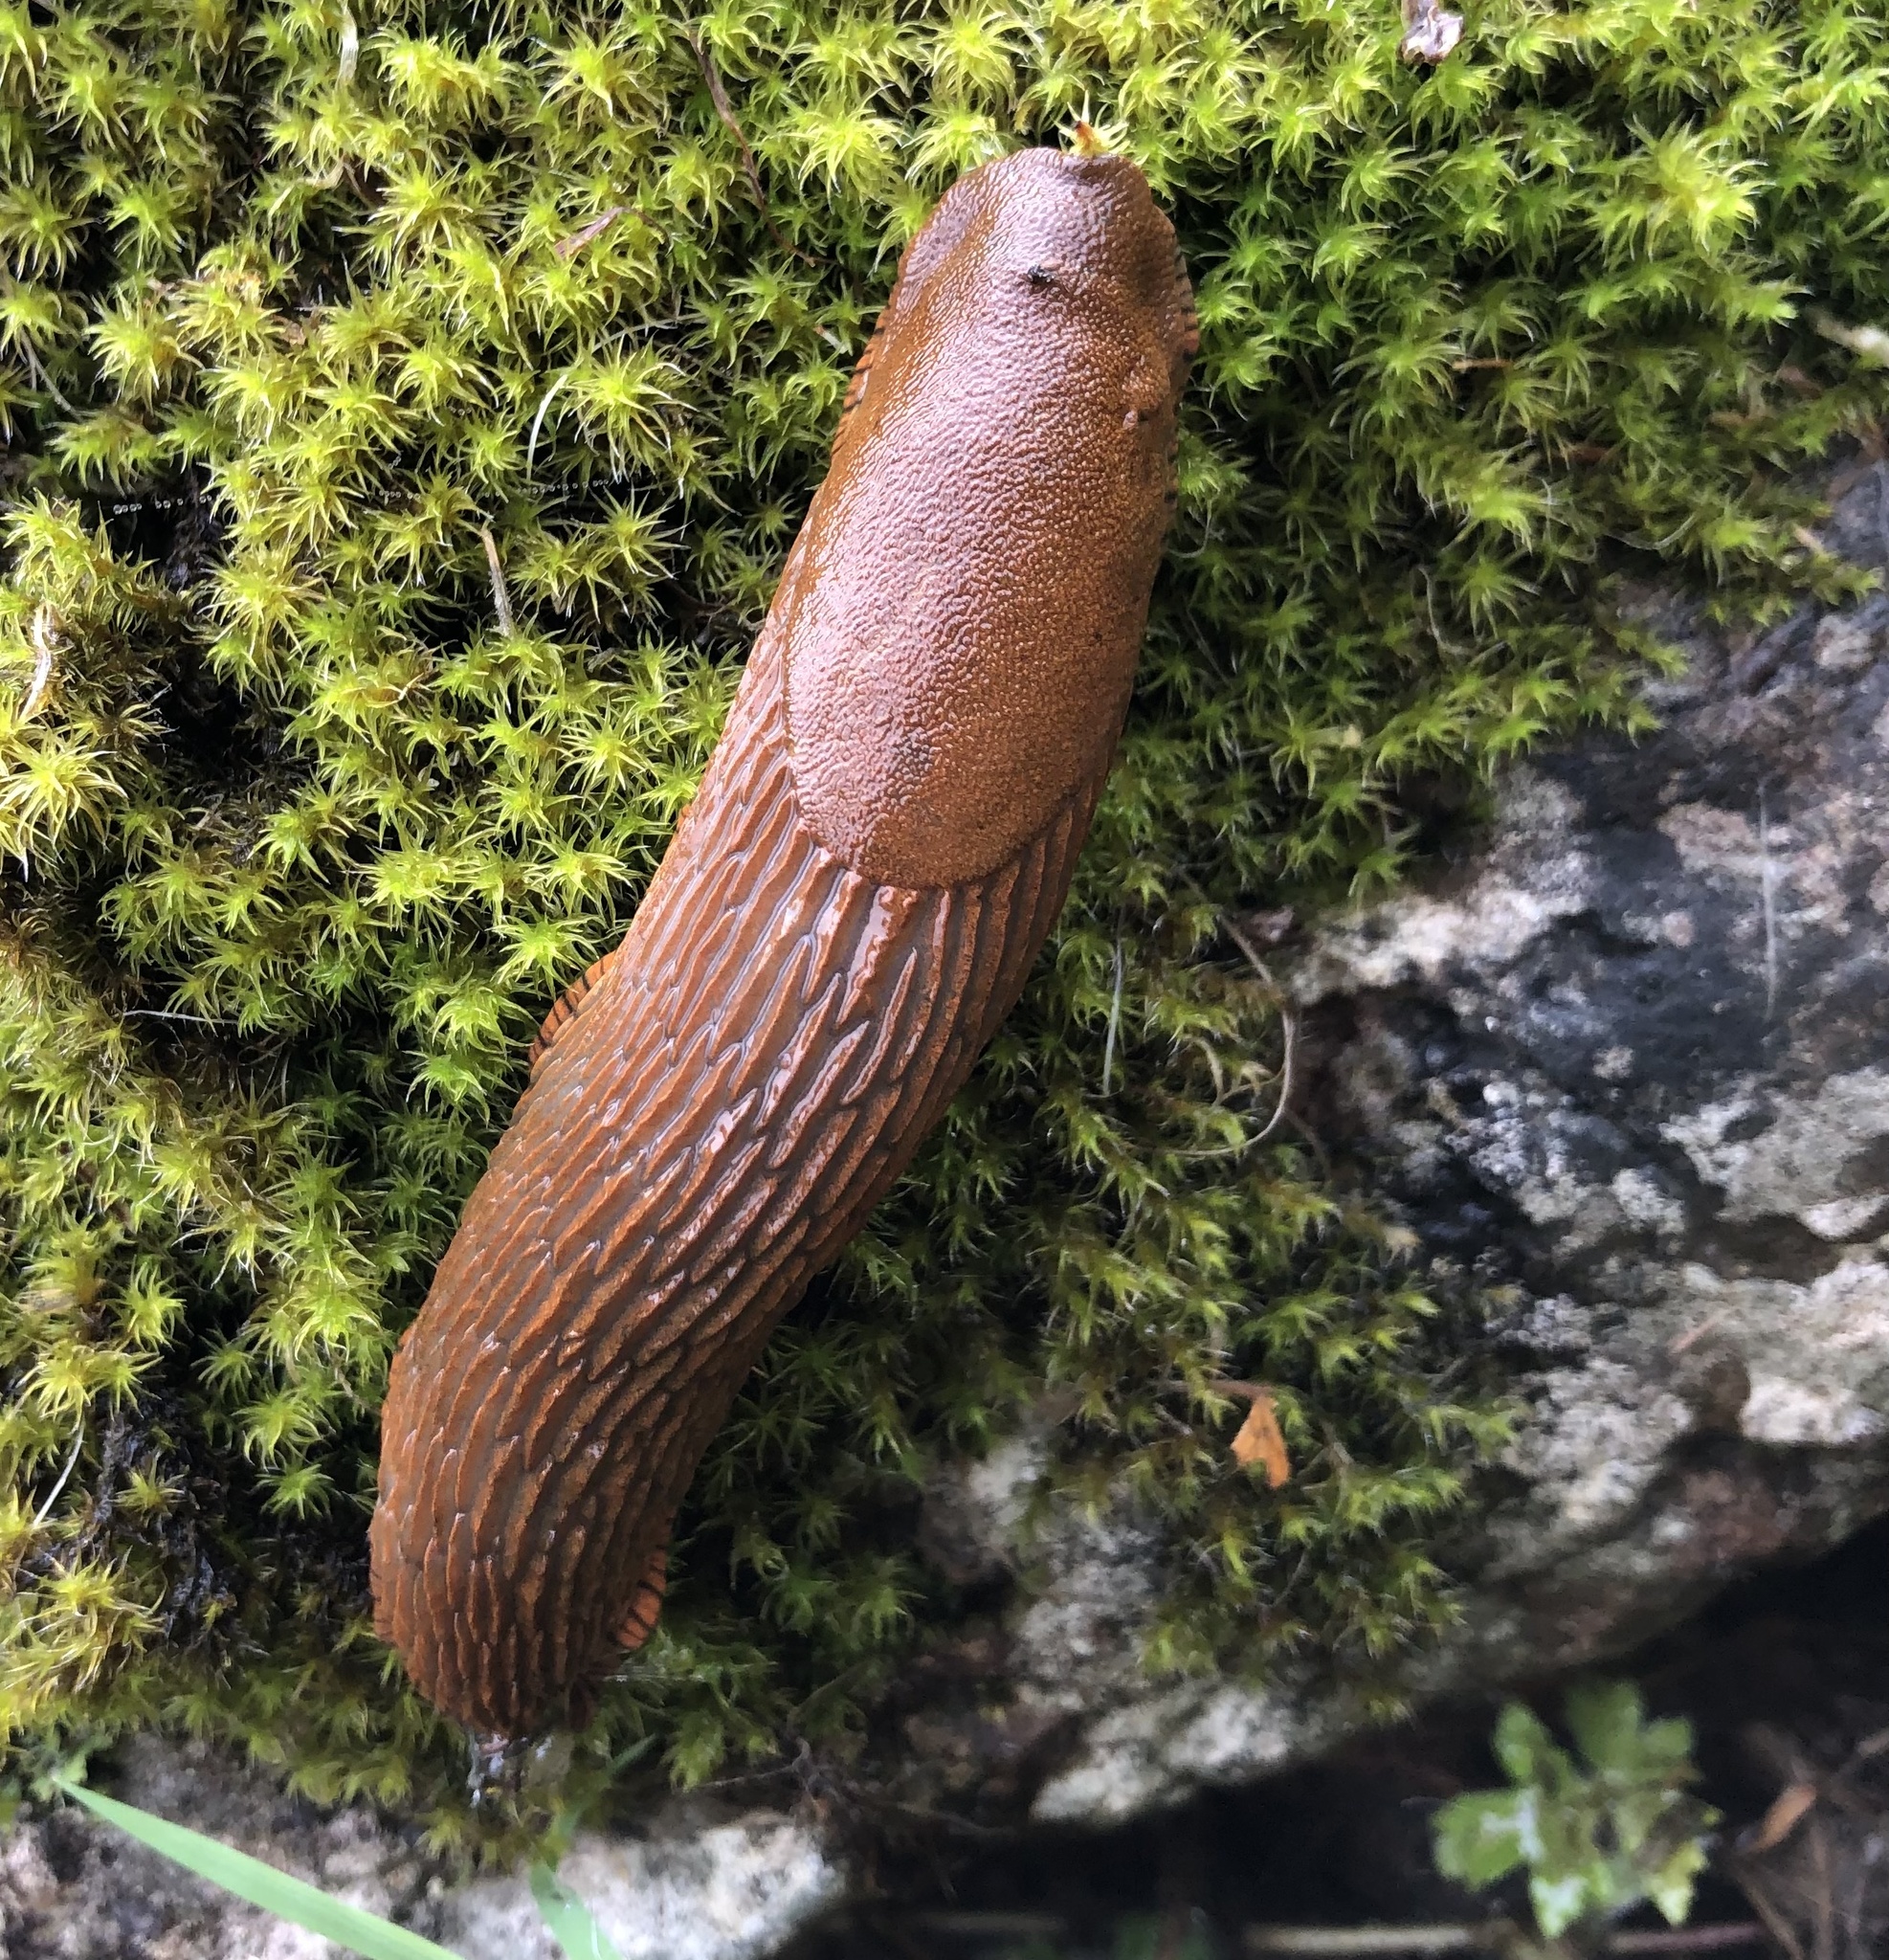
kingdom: Animalia
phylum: Mollusca
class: Gastropoda
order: Stylommatophora
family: Arionidae
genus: Arion
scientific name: Arion
